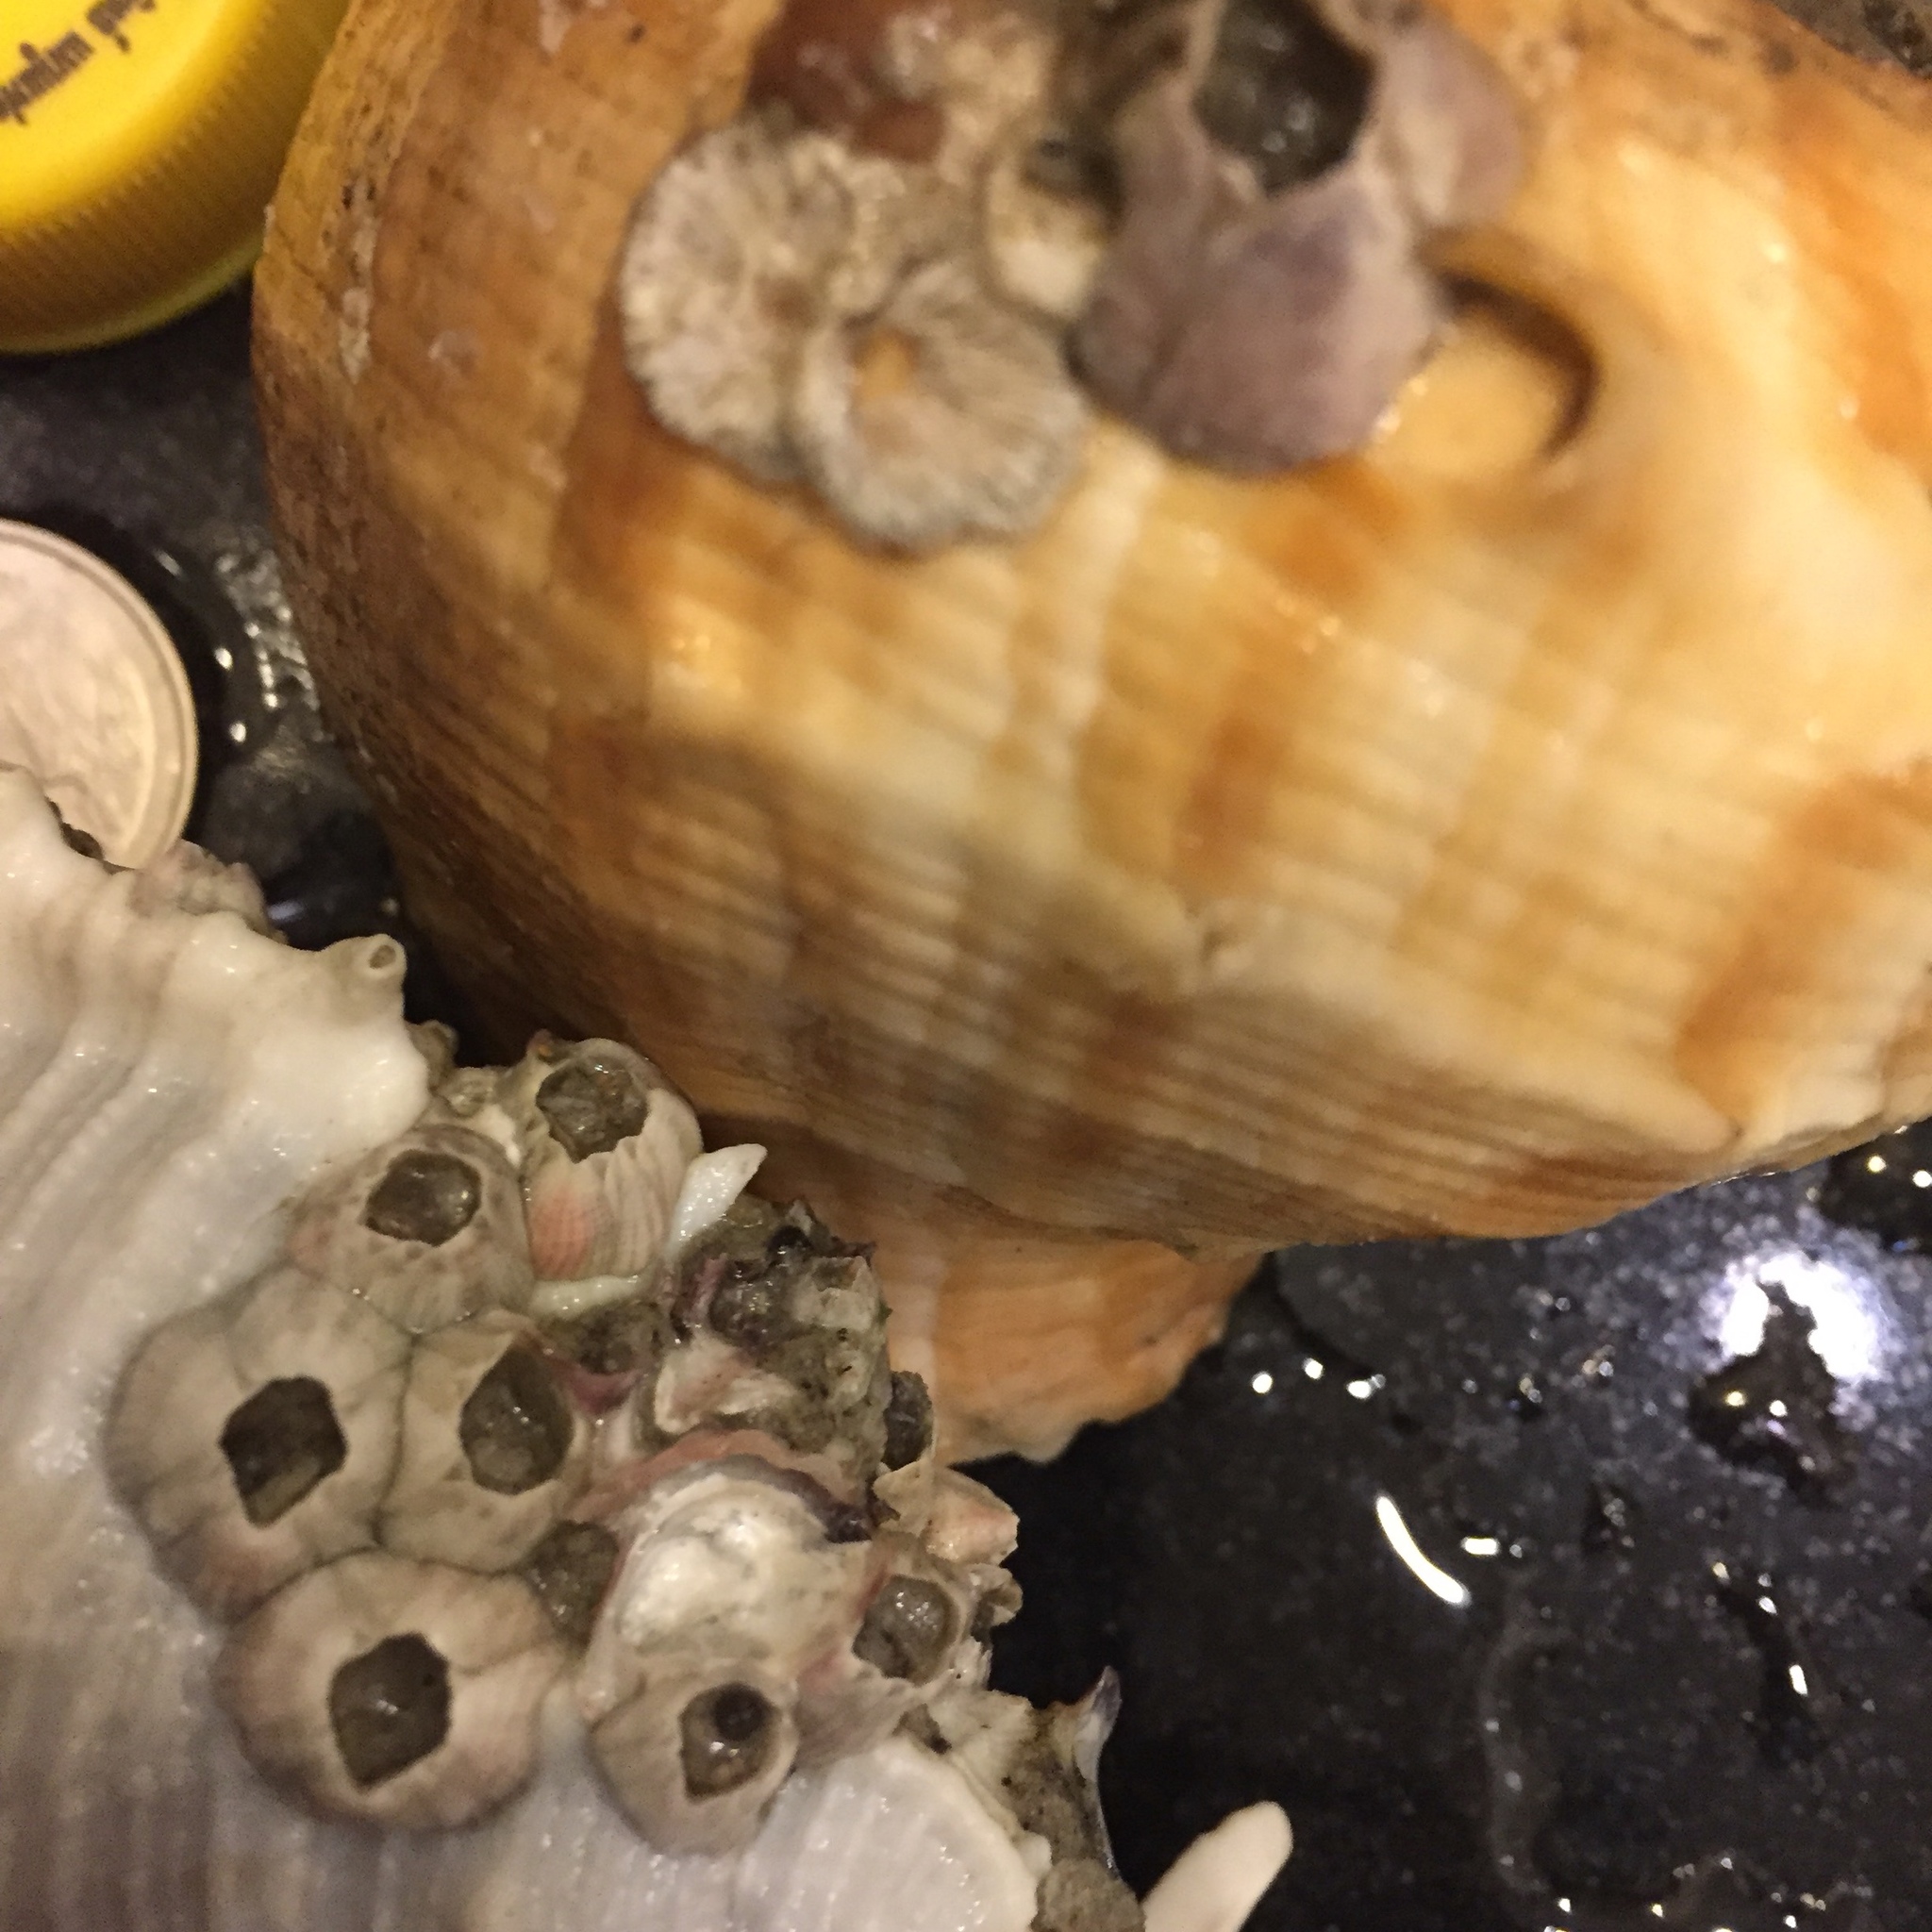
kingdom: Animalia
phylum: Arthropoda
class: Maxillopoda
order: Sessilia
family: Balanidae
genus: Amphibalanus
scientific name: Amphibalanus variegatus
